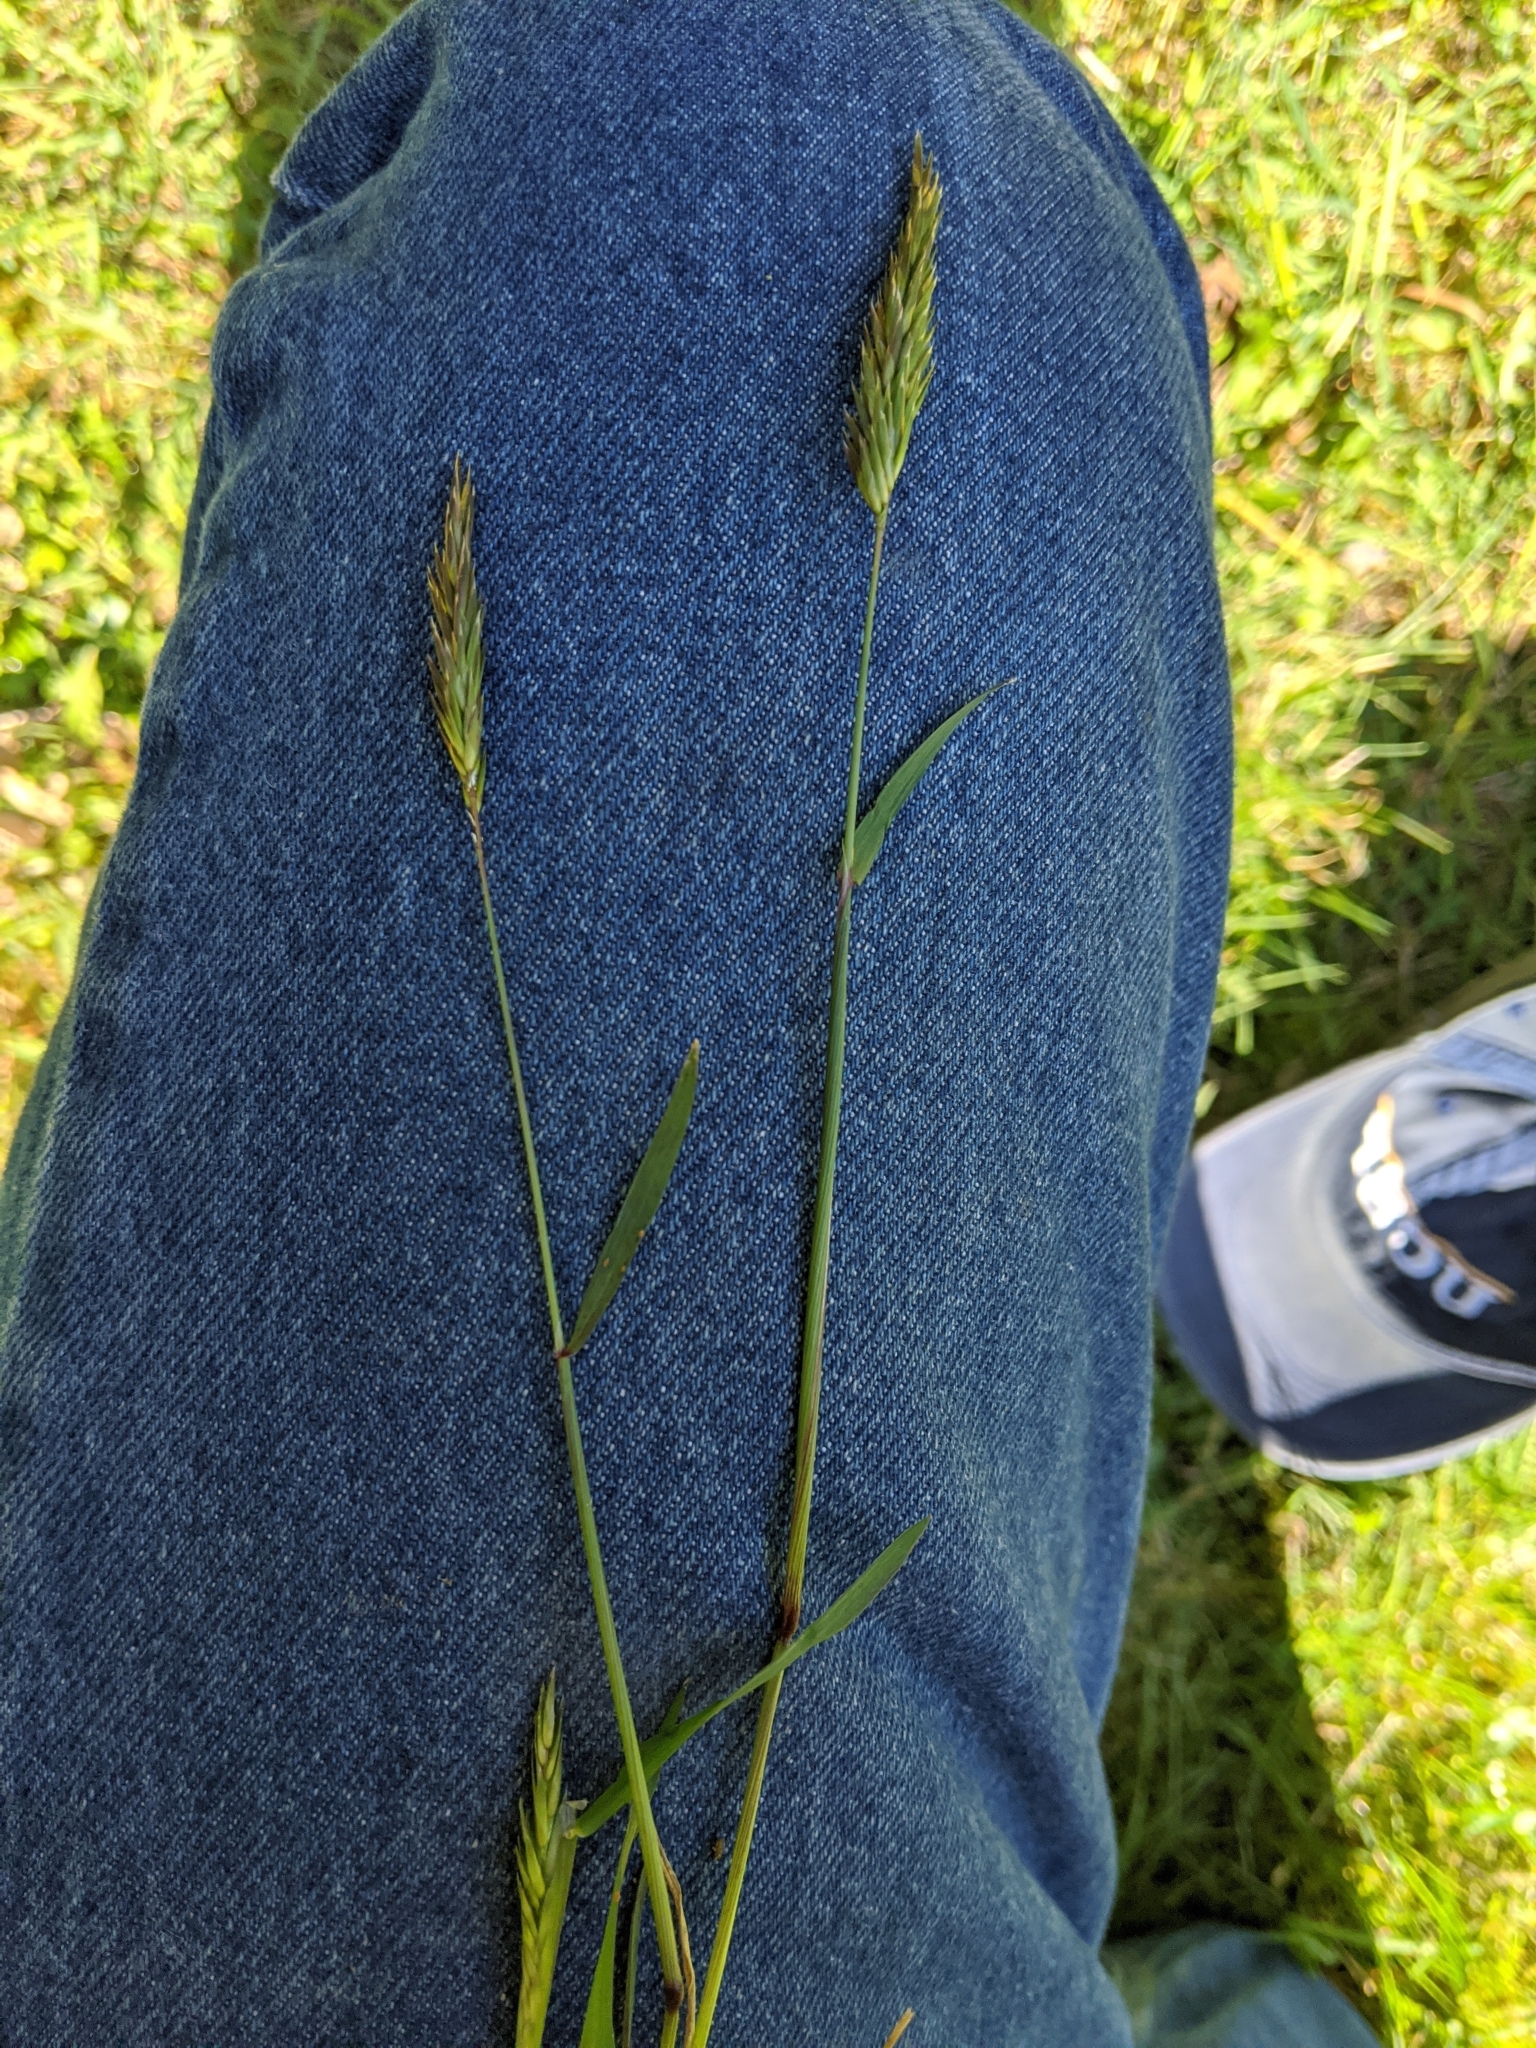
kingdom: Plantae
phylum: Tracheophyta
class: Liliopsida
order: Poales
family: Poaceae
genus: Anthoxanthum
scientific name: Anthoxanthum odoratum
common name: Sweet vernalgrass
